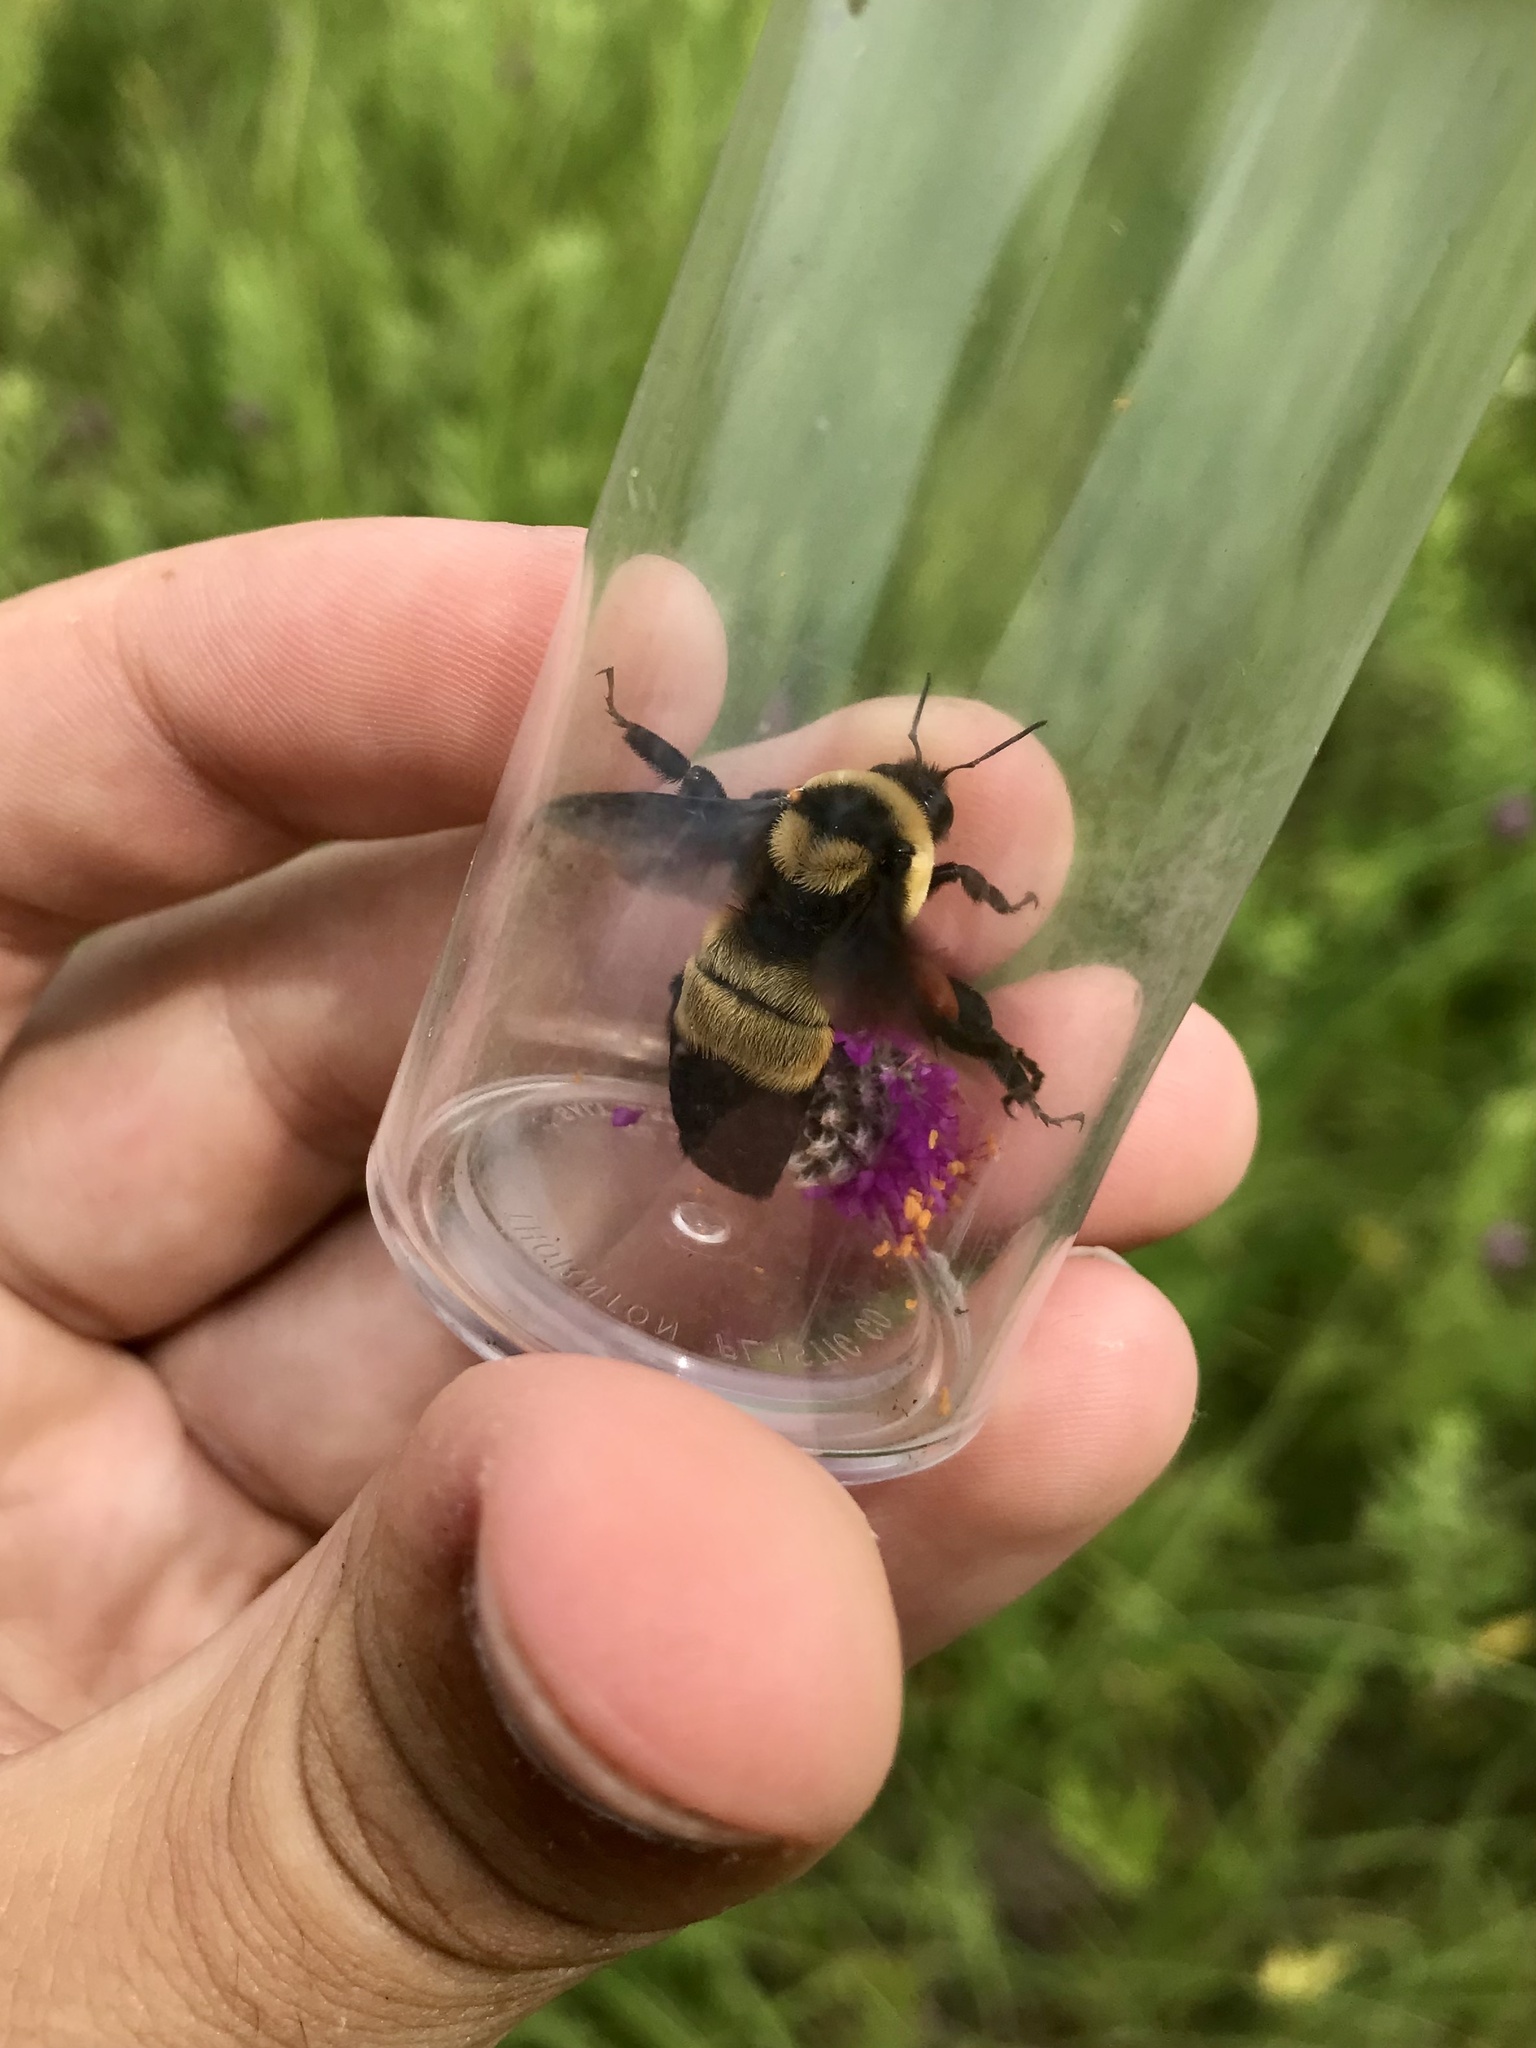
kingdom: Animalia
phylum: Arthropoda
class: Insecta
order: Hymenoptera
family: Apidae
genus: Bombus
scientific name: Bombus fraternus
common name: Southern plains bumble bee
